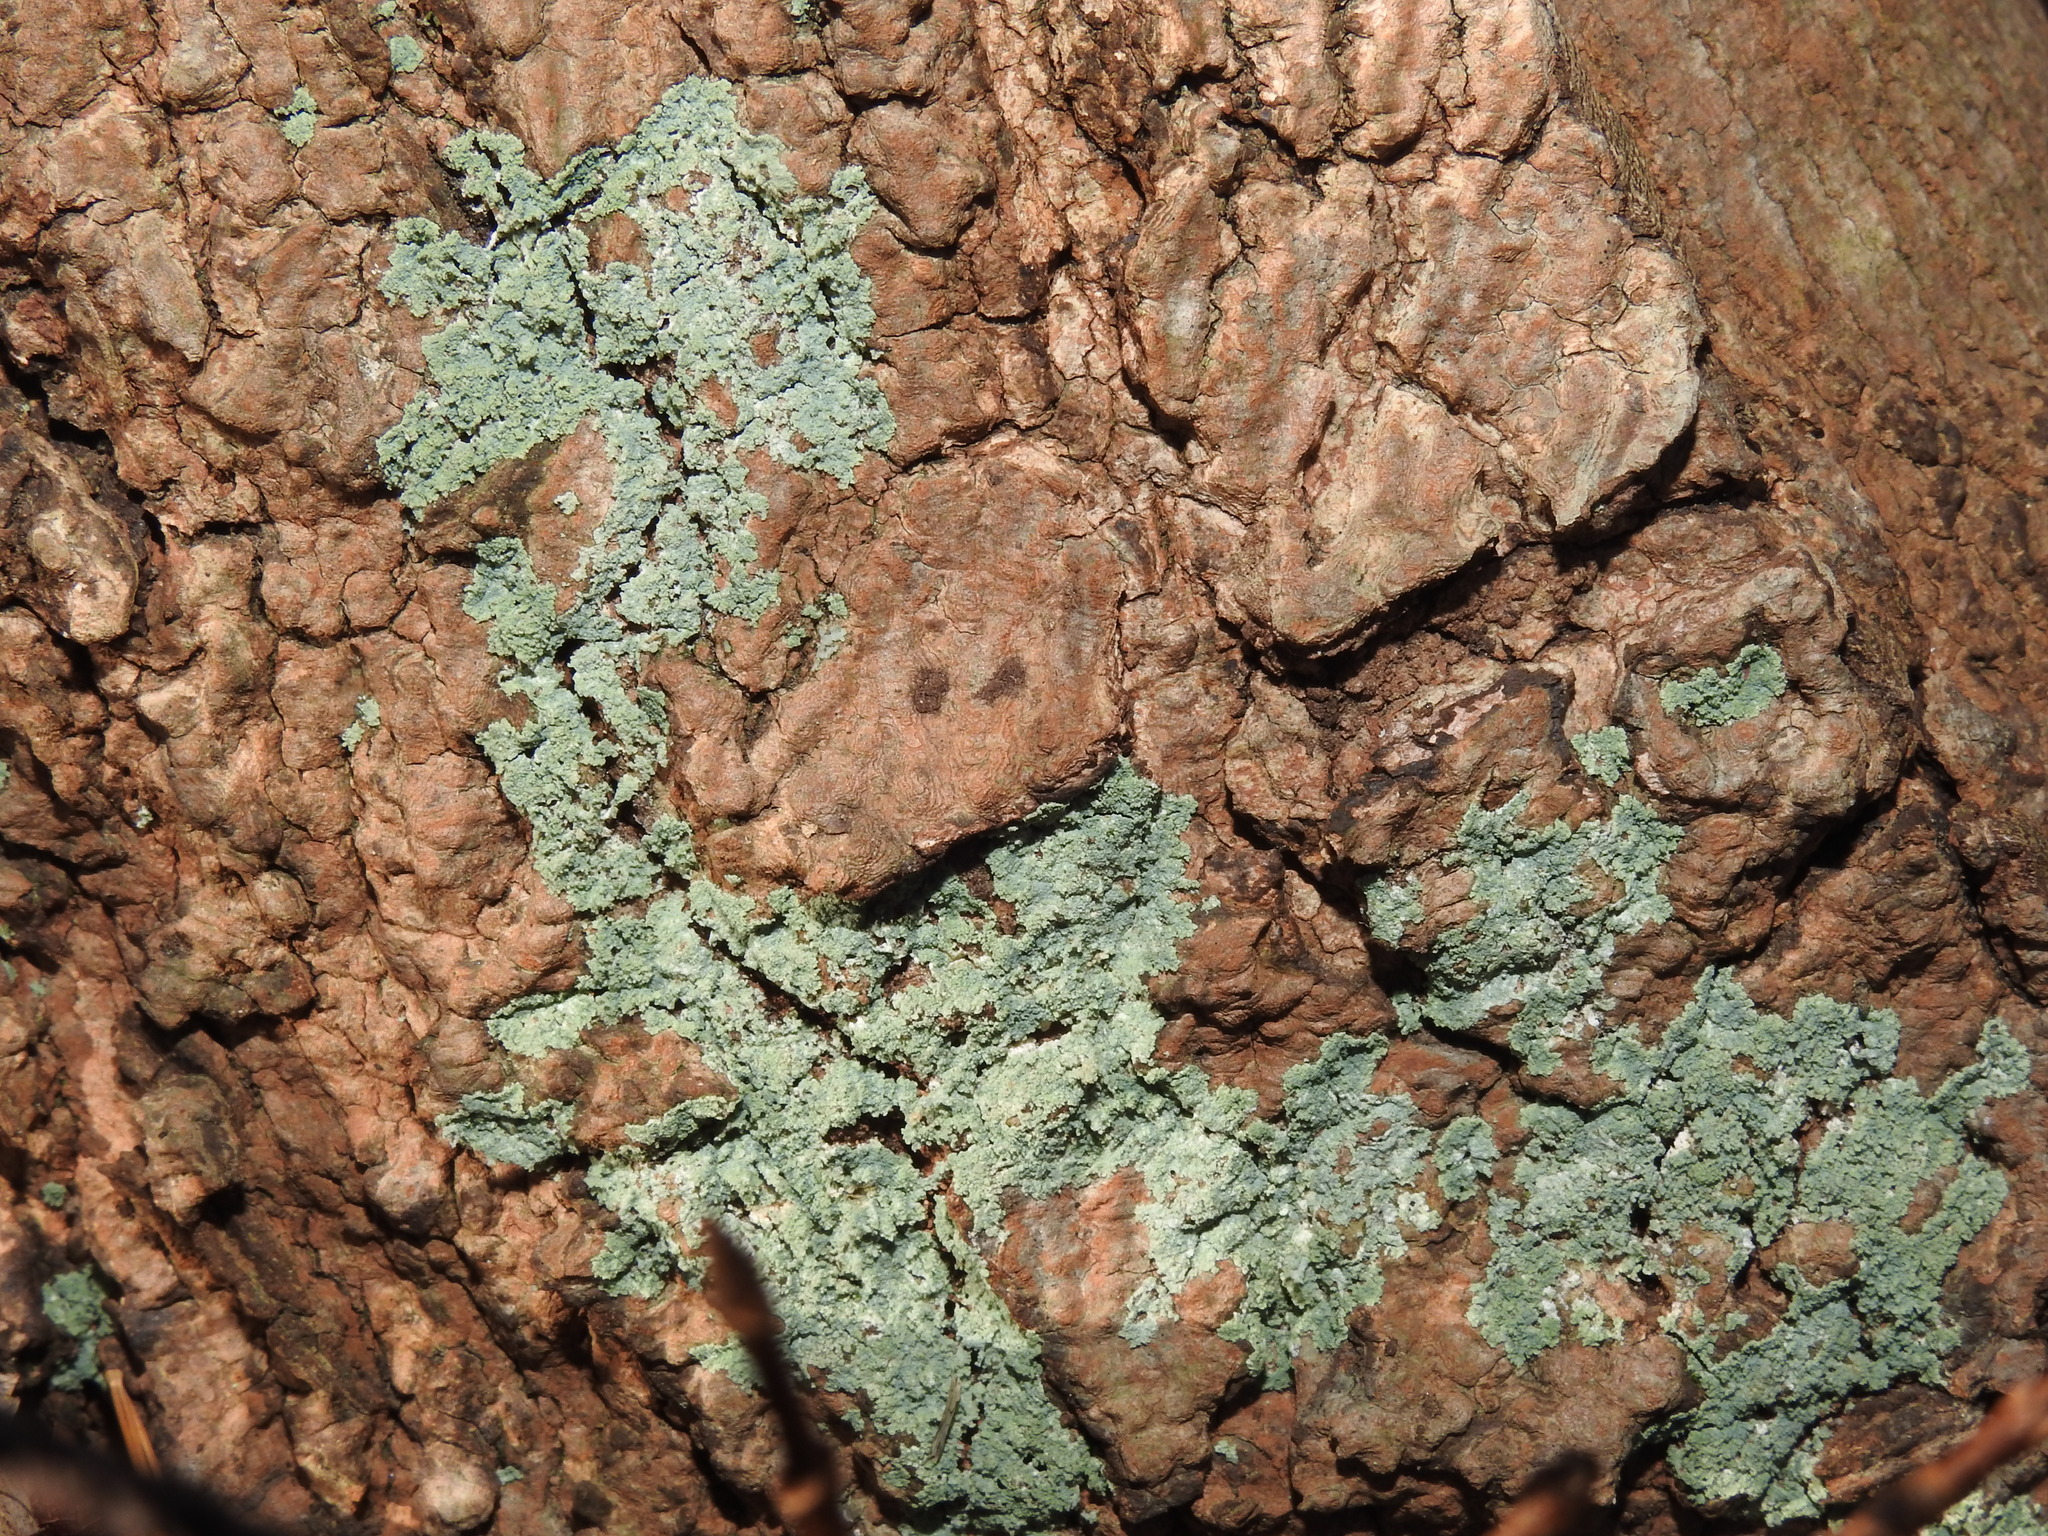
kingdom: Fungi
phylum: Ascomycota
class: Lecanoromycetes
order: Lecanorales
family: Stereocaulaceae
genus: Lepraria
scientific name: Lepraria lobificans
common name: Fluffy dust lichen
